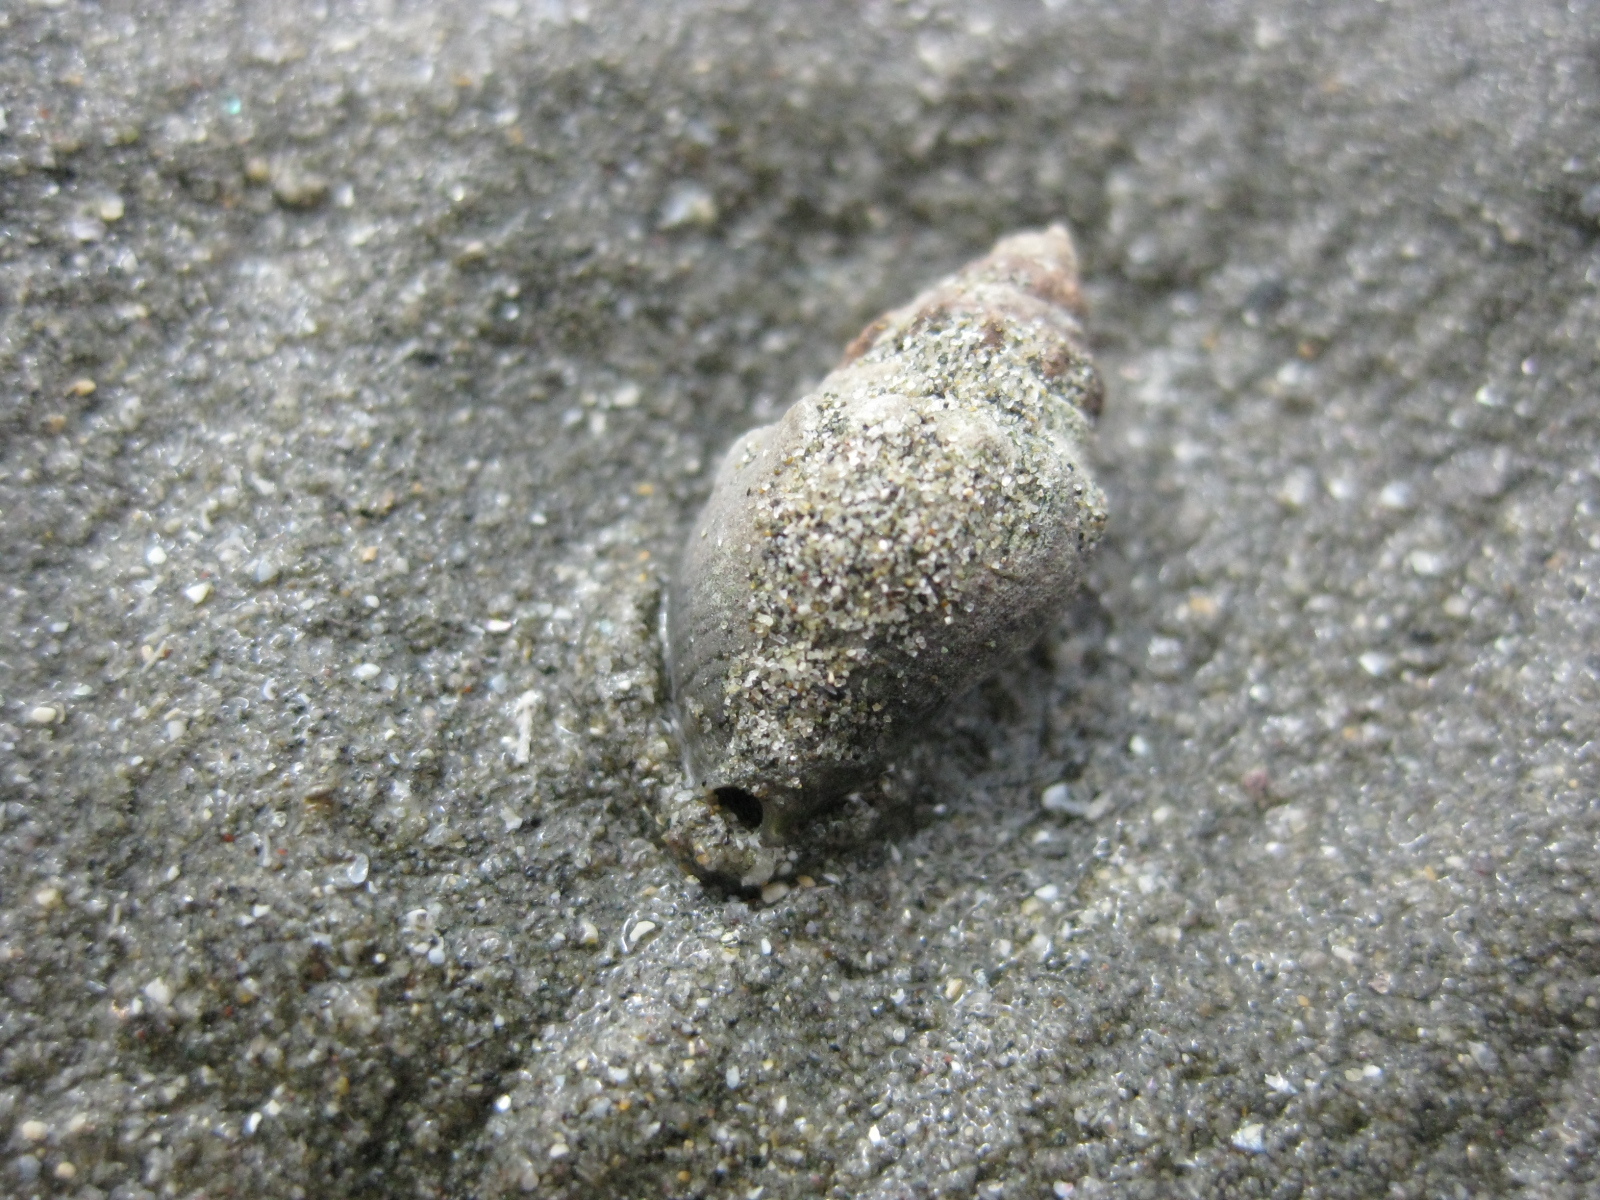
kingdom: Animalia
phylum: Mollusca
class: Gastropoda
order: Neogastropoda
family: Cominellidae
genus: Cominella
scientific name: Cominella glandiformis
